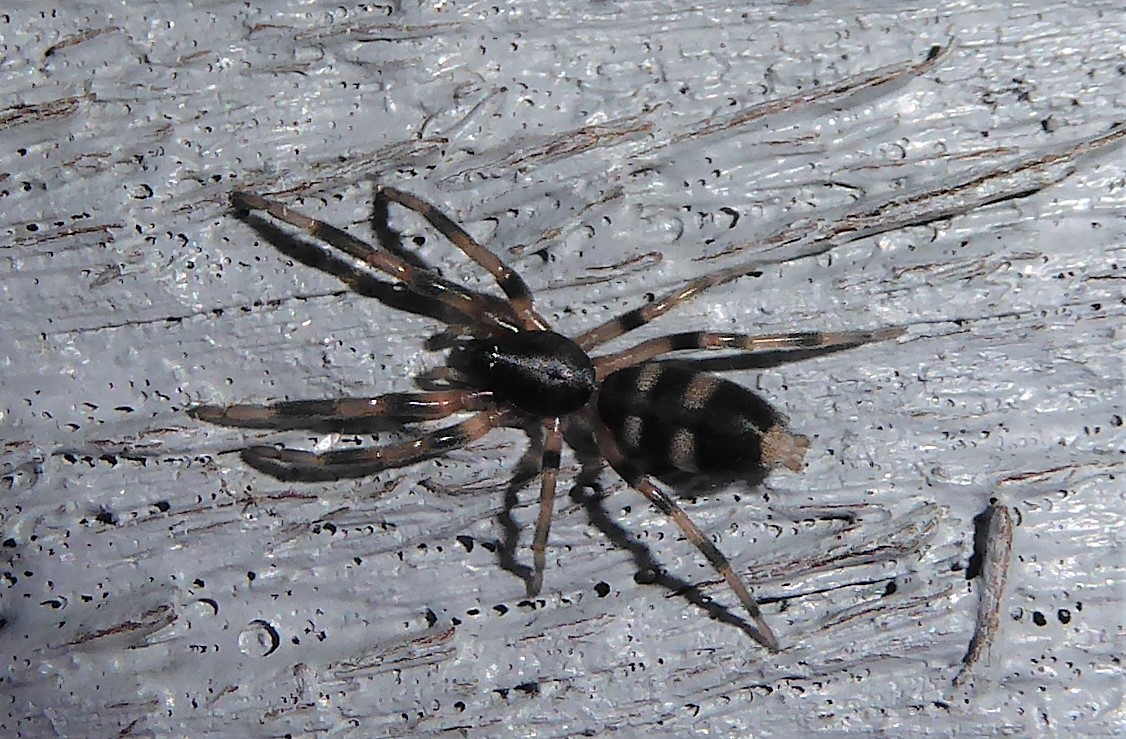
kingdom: Animalia
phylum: Arthropoda
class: Arachnida
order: Araneae
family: Lamponidae
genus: Lampona
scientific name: Lampona cylindrata
